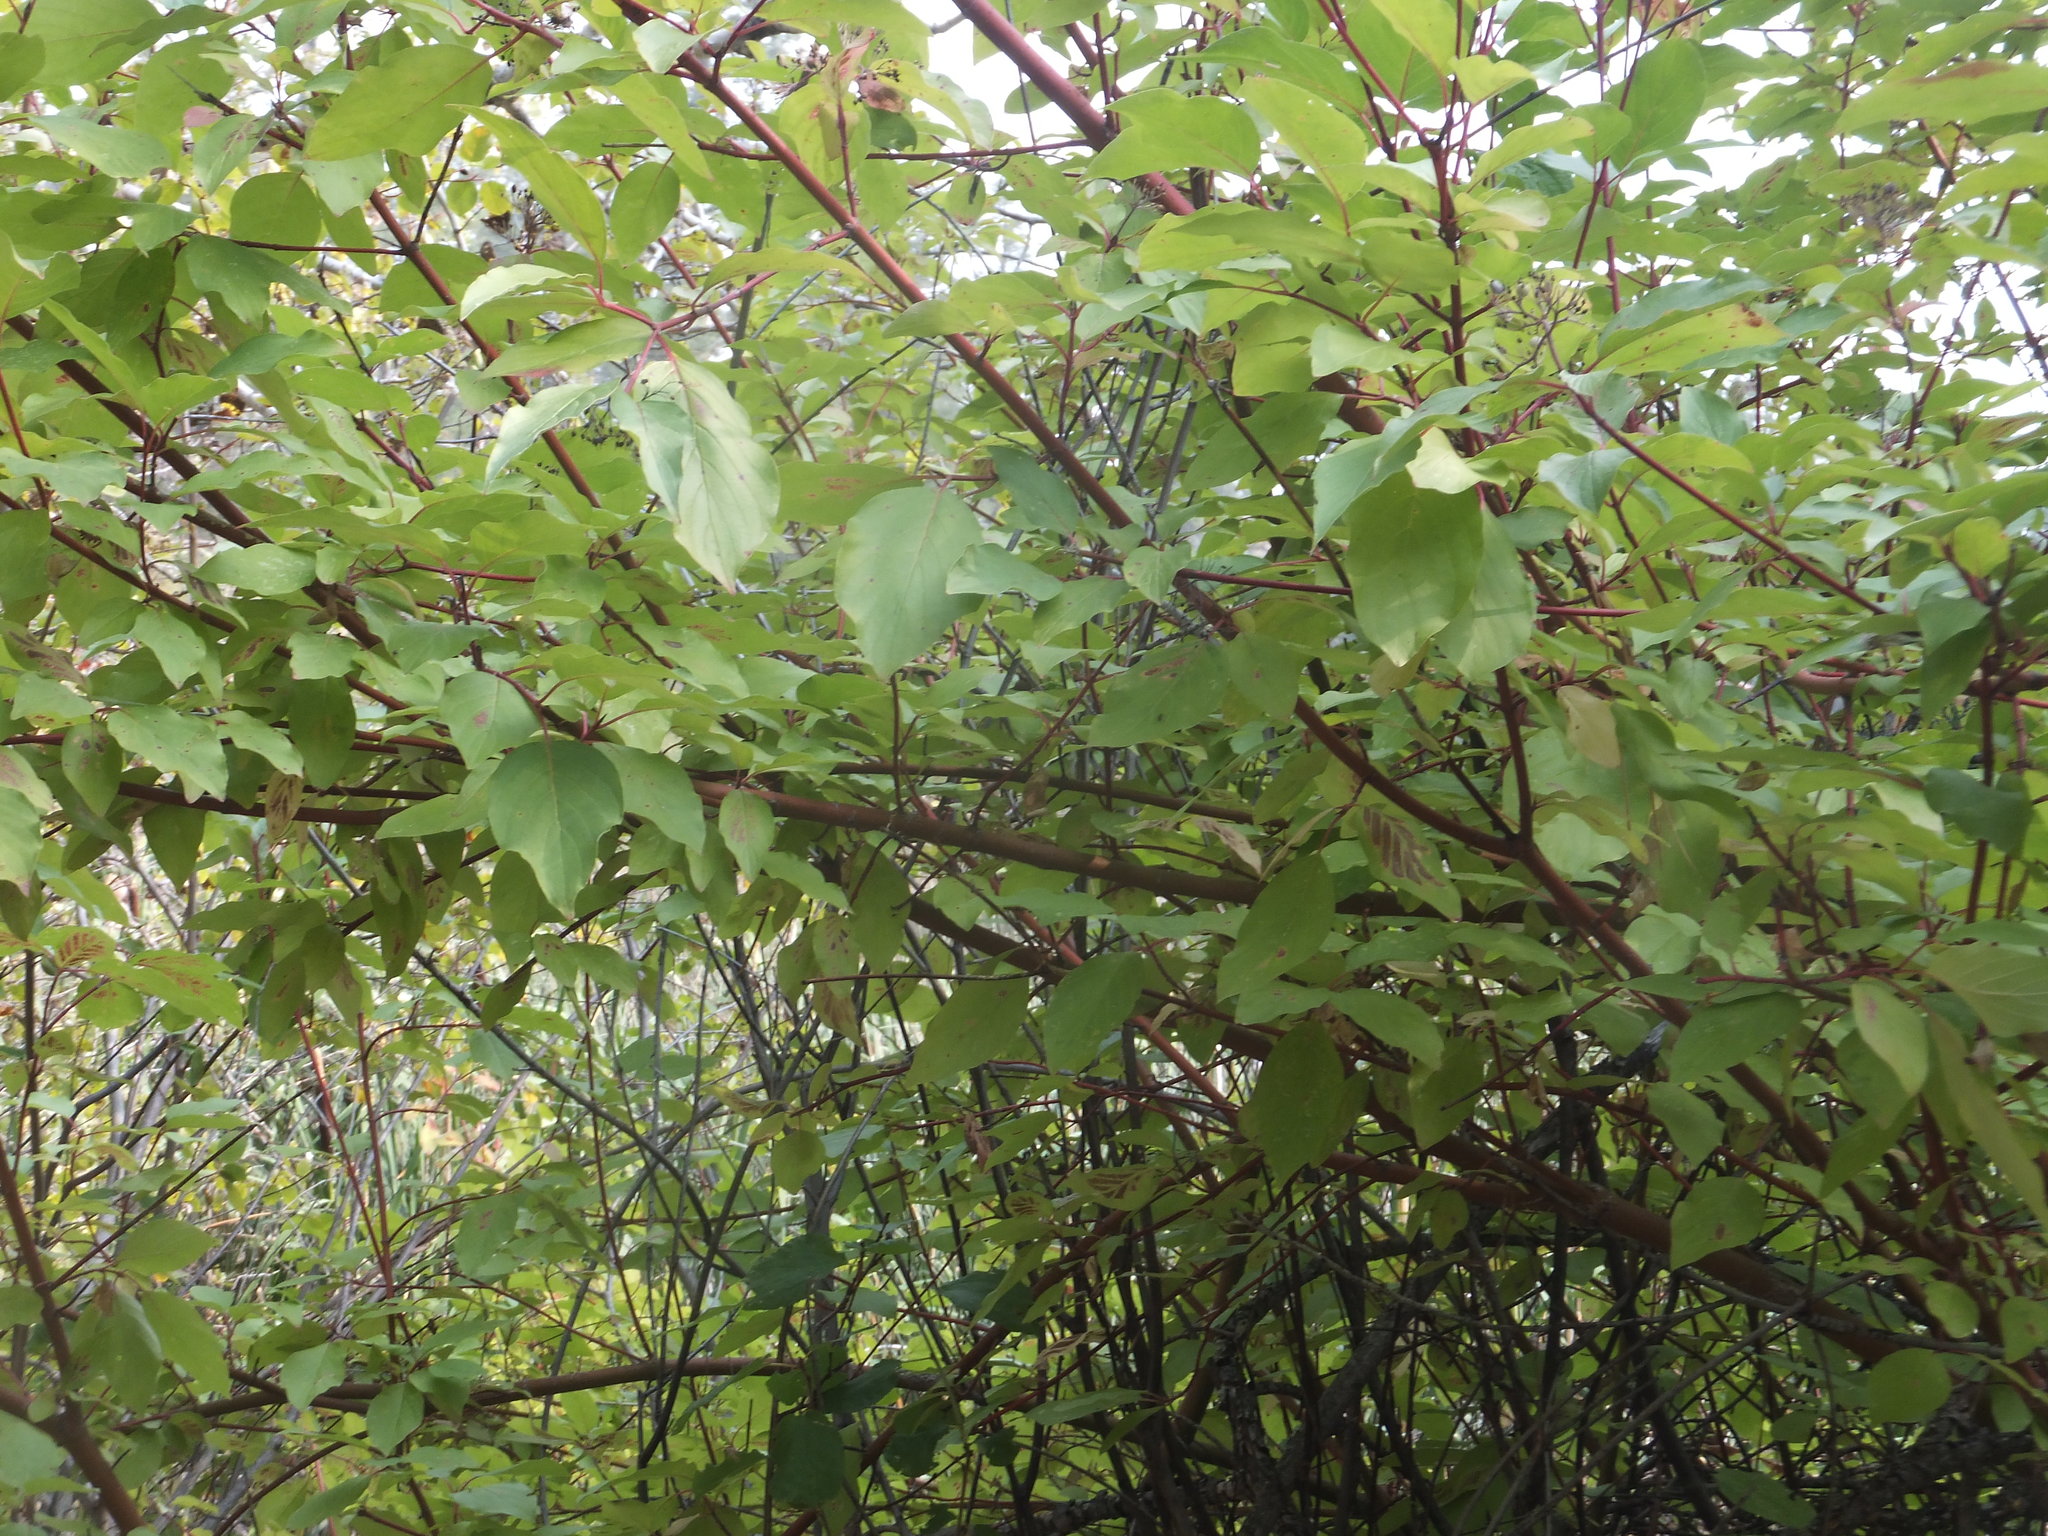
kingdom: Plantae
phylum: Tracheophyta
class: Magnoliopsida
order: Cornales
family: Cornaceae
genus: Cornus
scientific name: Cornus sericea
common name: Red-osier dogwood
